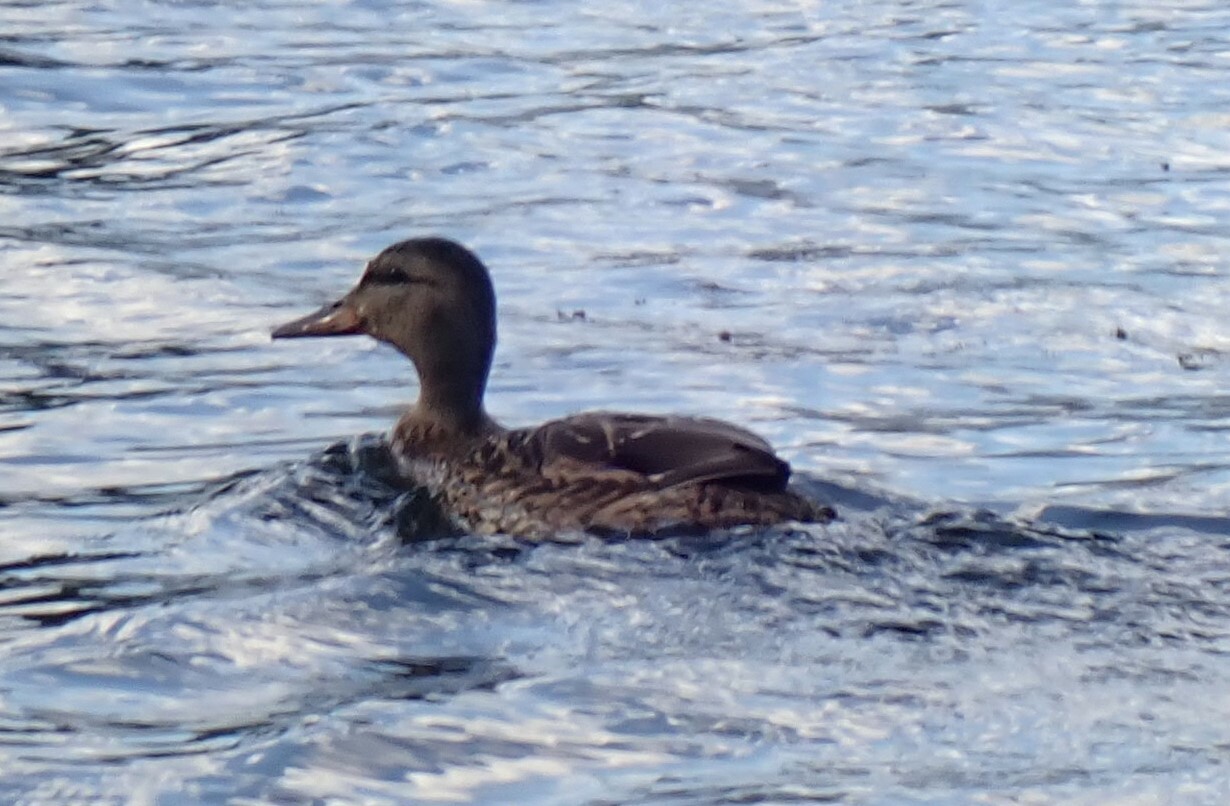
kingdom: Animalia
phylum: Chordata
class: Aves
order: Anseriformes
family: Anatidae
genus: Anas
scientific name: Anas platyrhynchos
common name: Mallard
